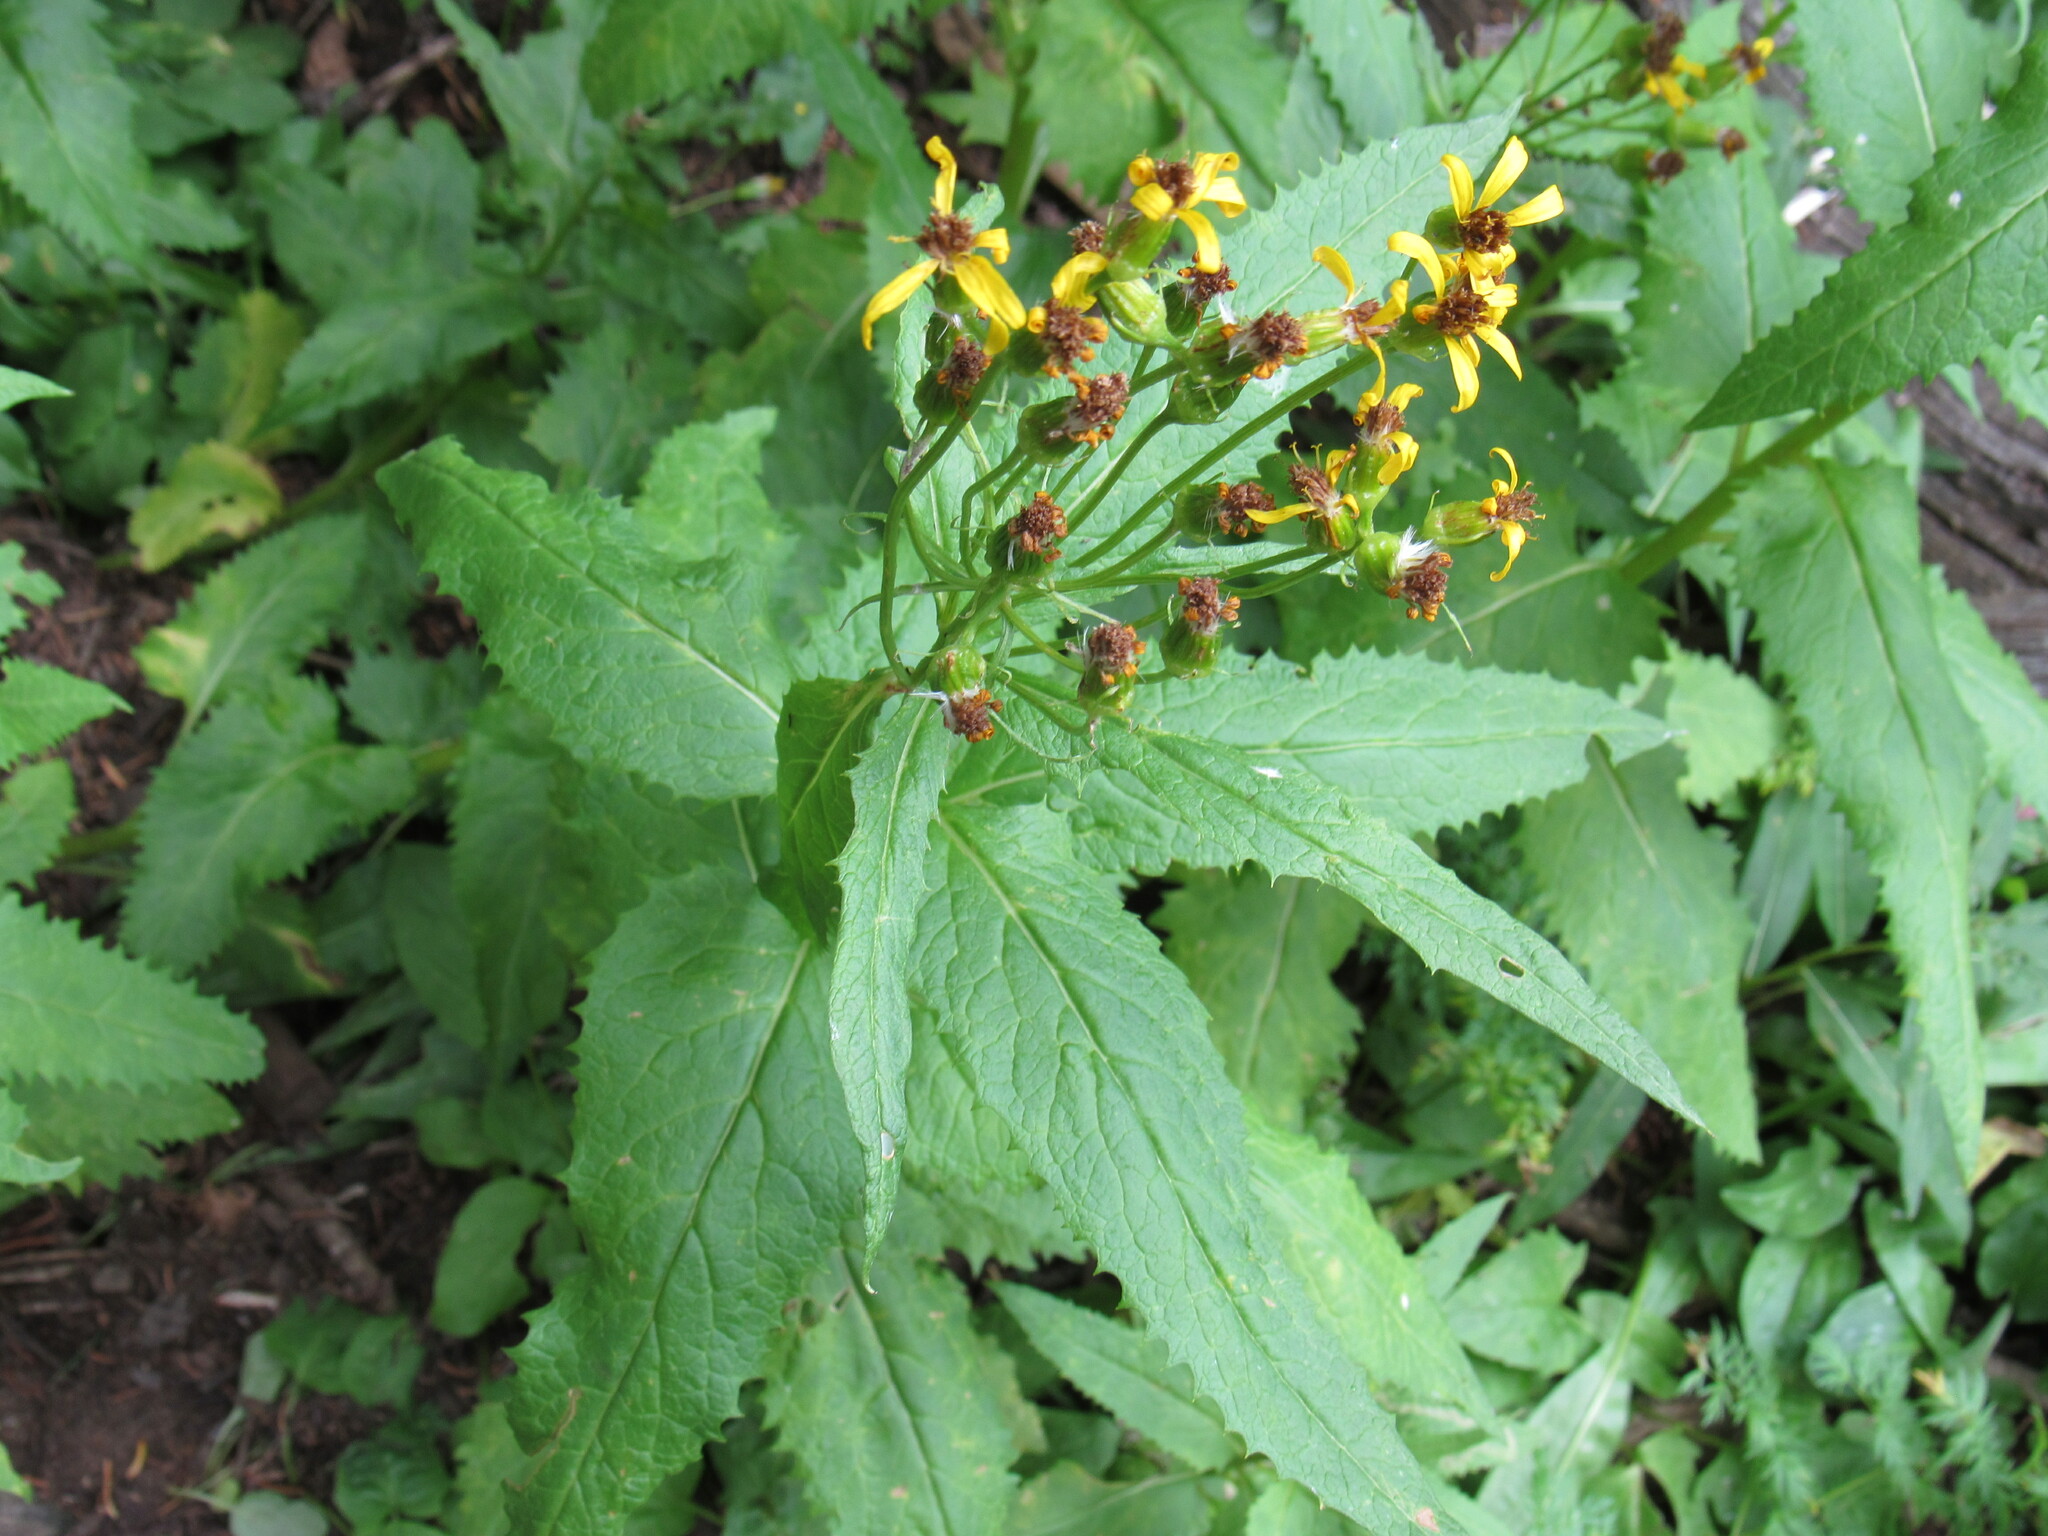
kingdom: Plantae
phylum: Tracheophyta
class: Magnoliopsida
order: Asterales
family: Asteraceae
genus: Senecio
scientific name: Senecio triangularis
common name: Arrowleaf butterweed
